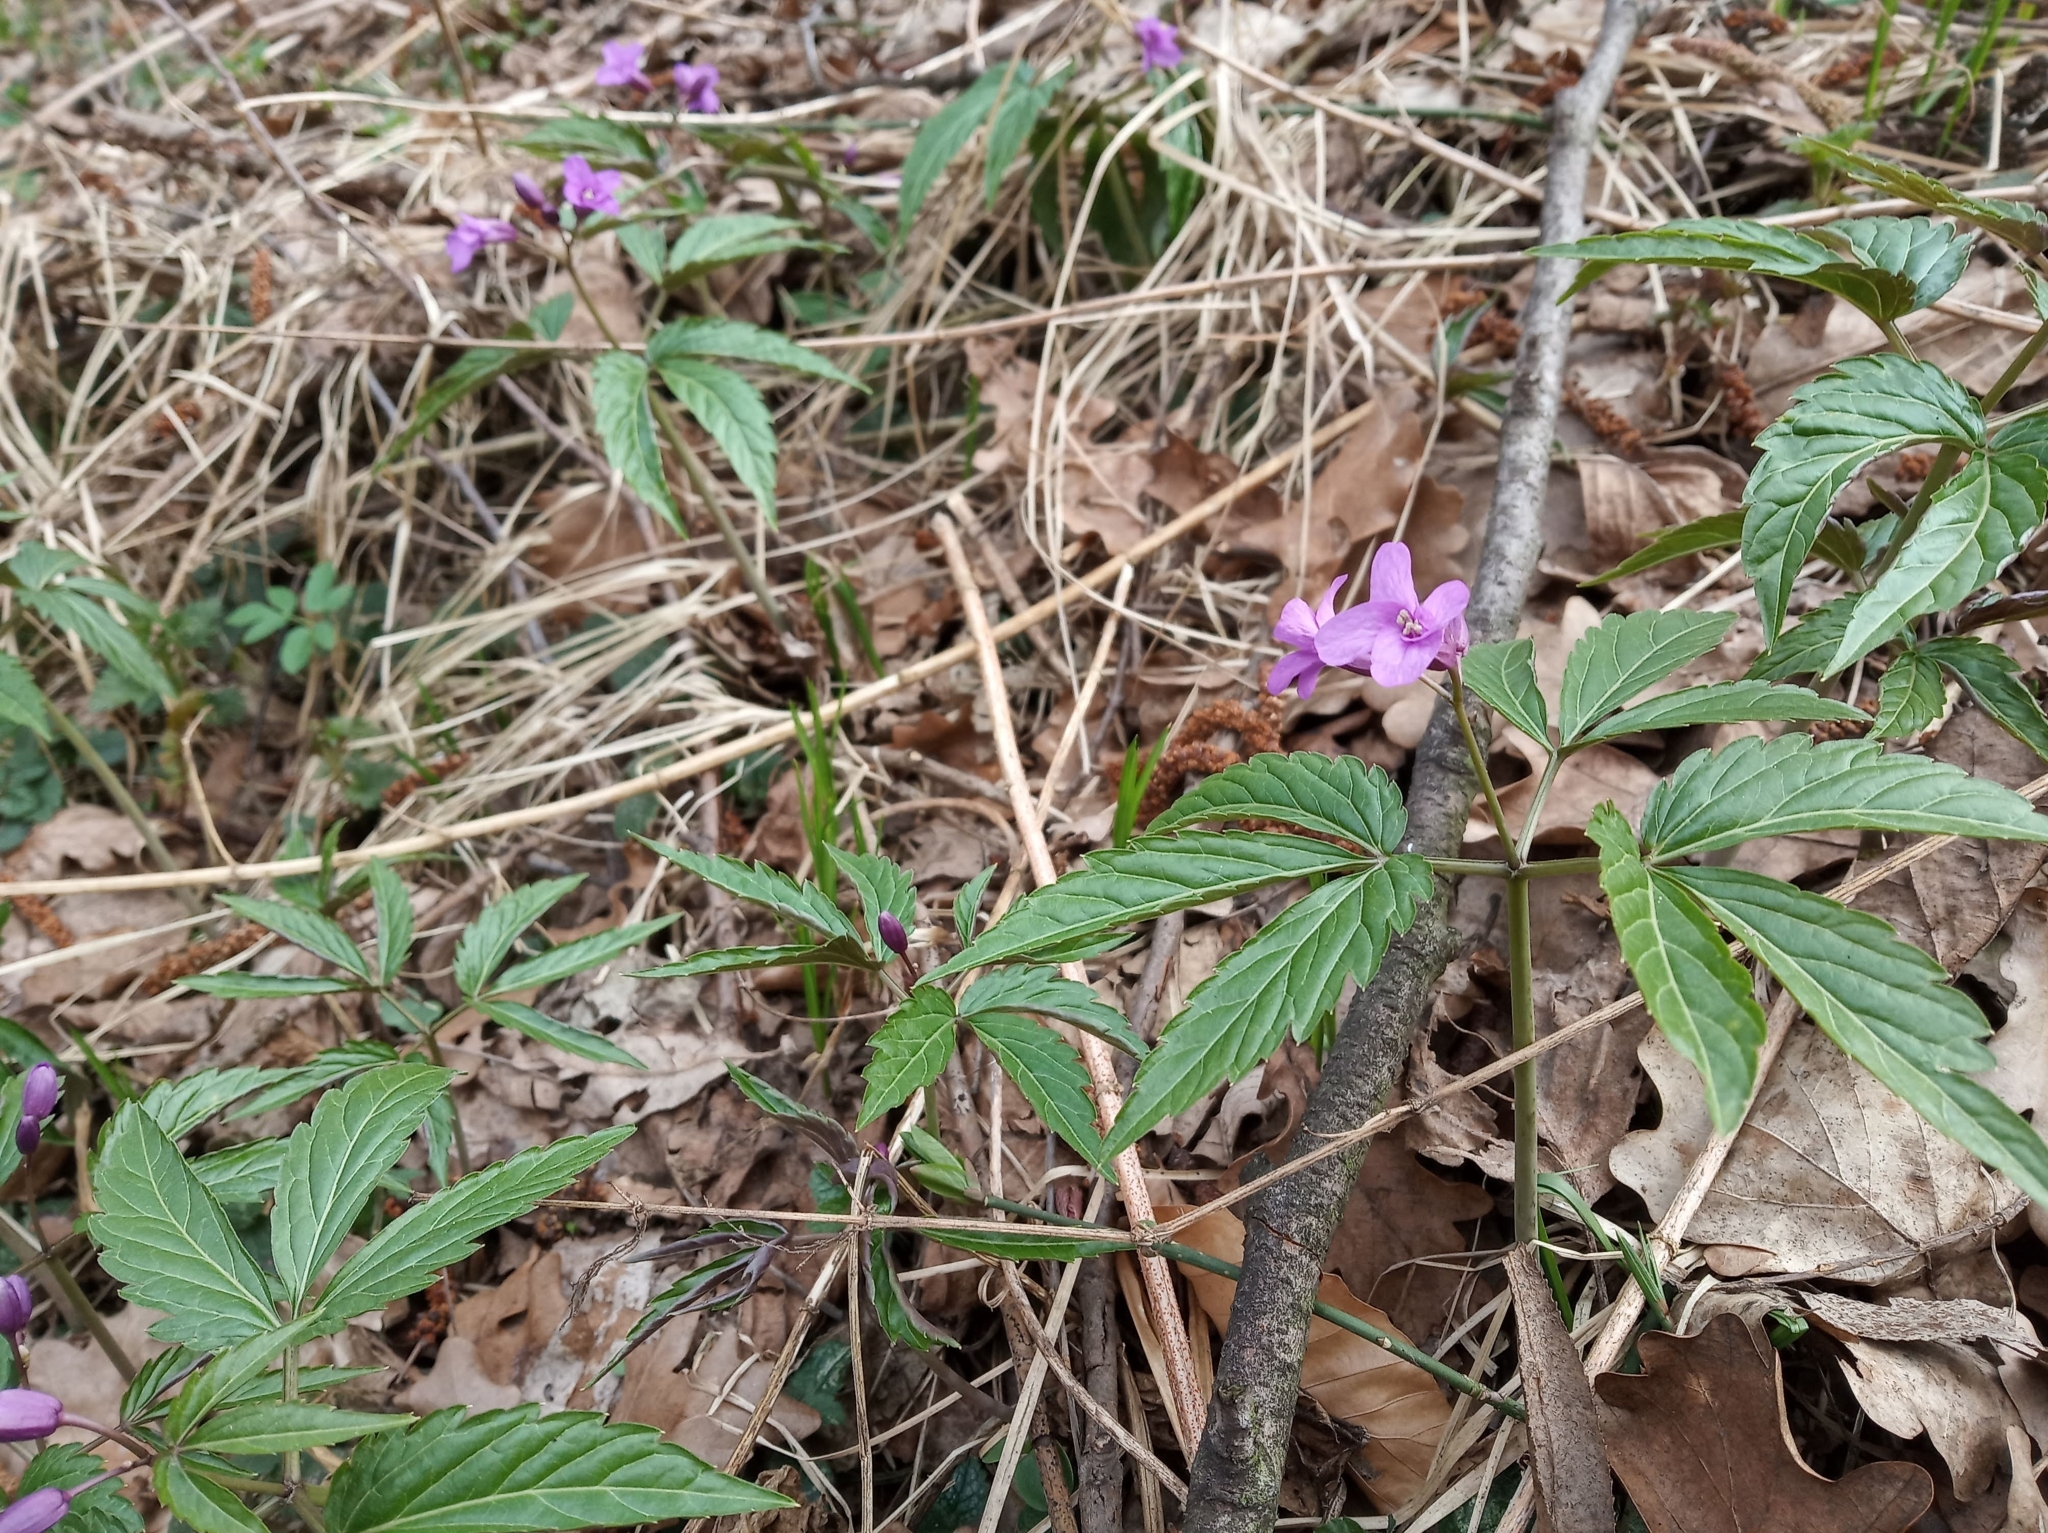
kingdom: Plantae
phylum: Tracheophyta
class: Magnoliopsida
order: Brassicales
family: Brassicaceae
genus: Cardamine
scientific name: Cardamine glanduligera
